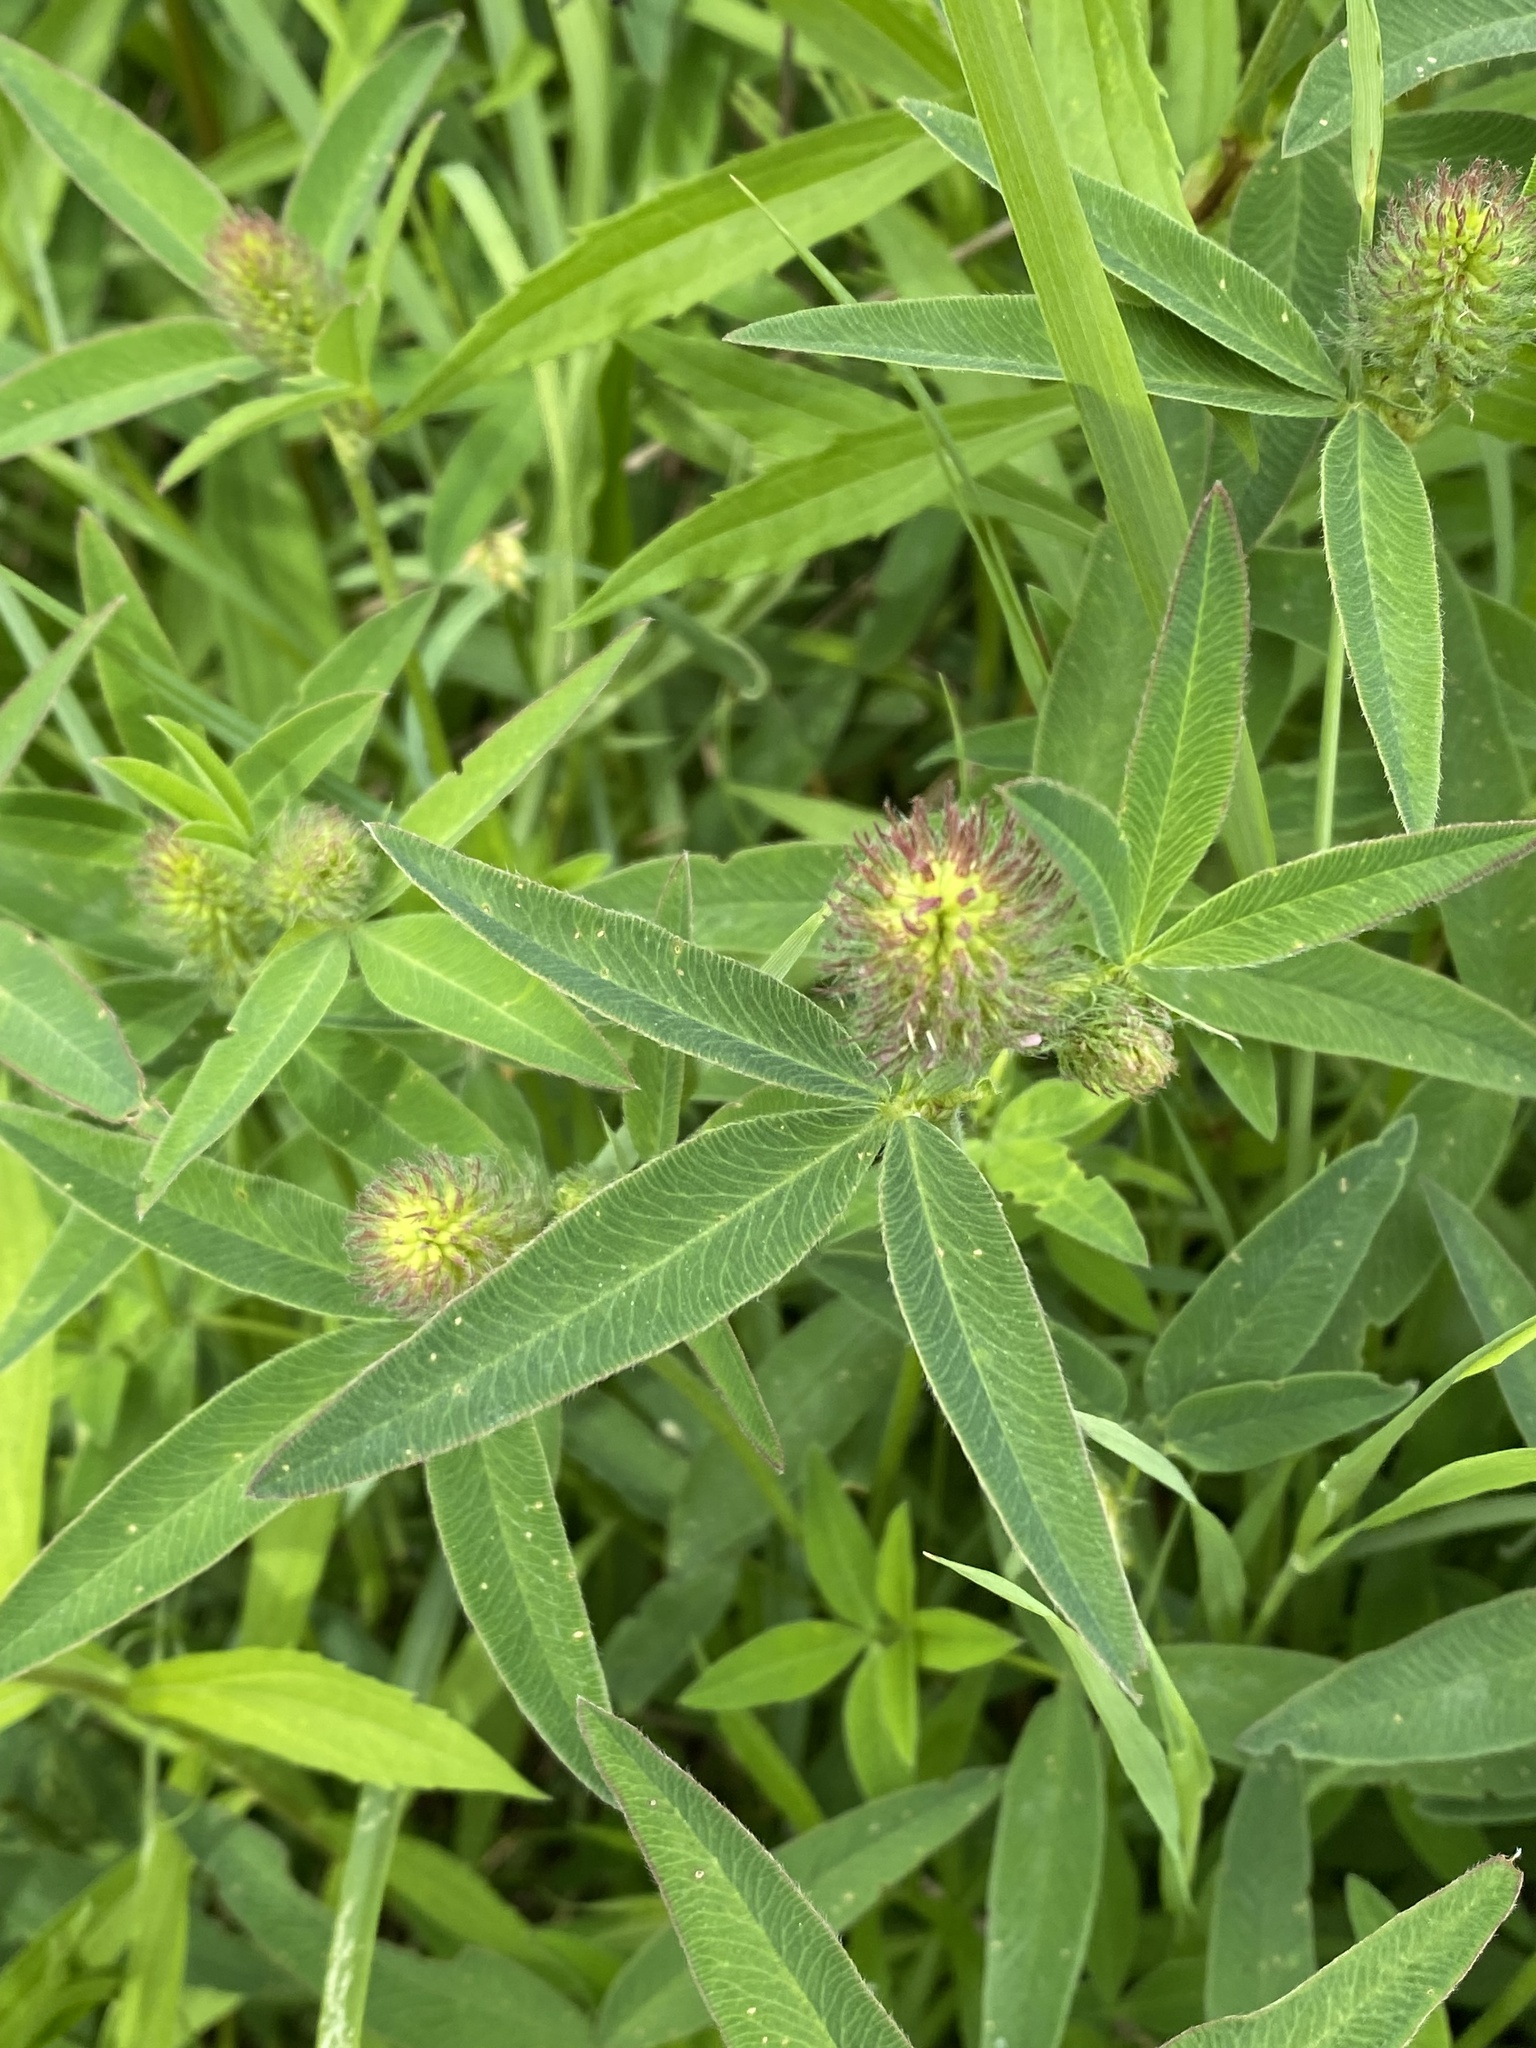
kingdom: Plantae
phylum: Tracheophyta
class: Magnoliopsida
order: Fabales
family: Fabaceae
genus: Trifolium
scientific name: Trifolium medium
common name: Zigzag clover
